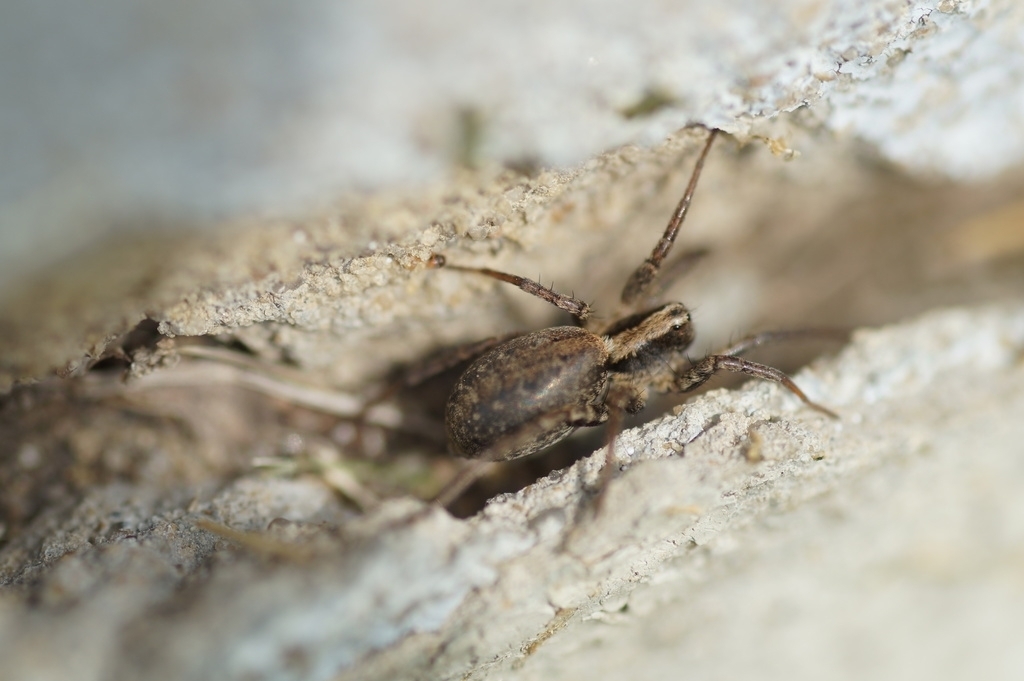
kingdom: Animalia
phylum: Arthropoda
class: Arachnida
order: Araneae
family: Lycosidae
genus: Xerolycosa
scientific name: Xerolycosa nemoralis
